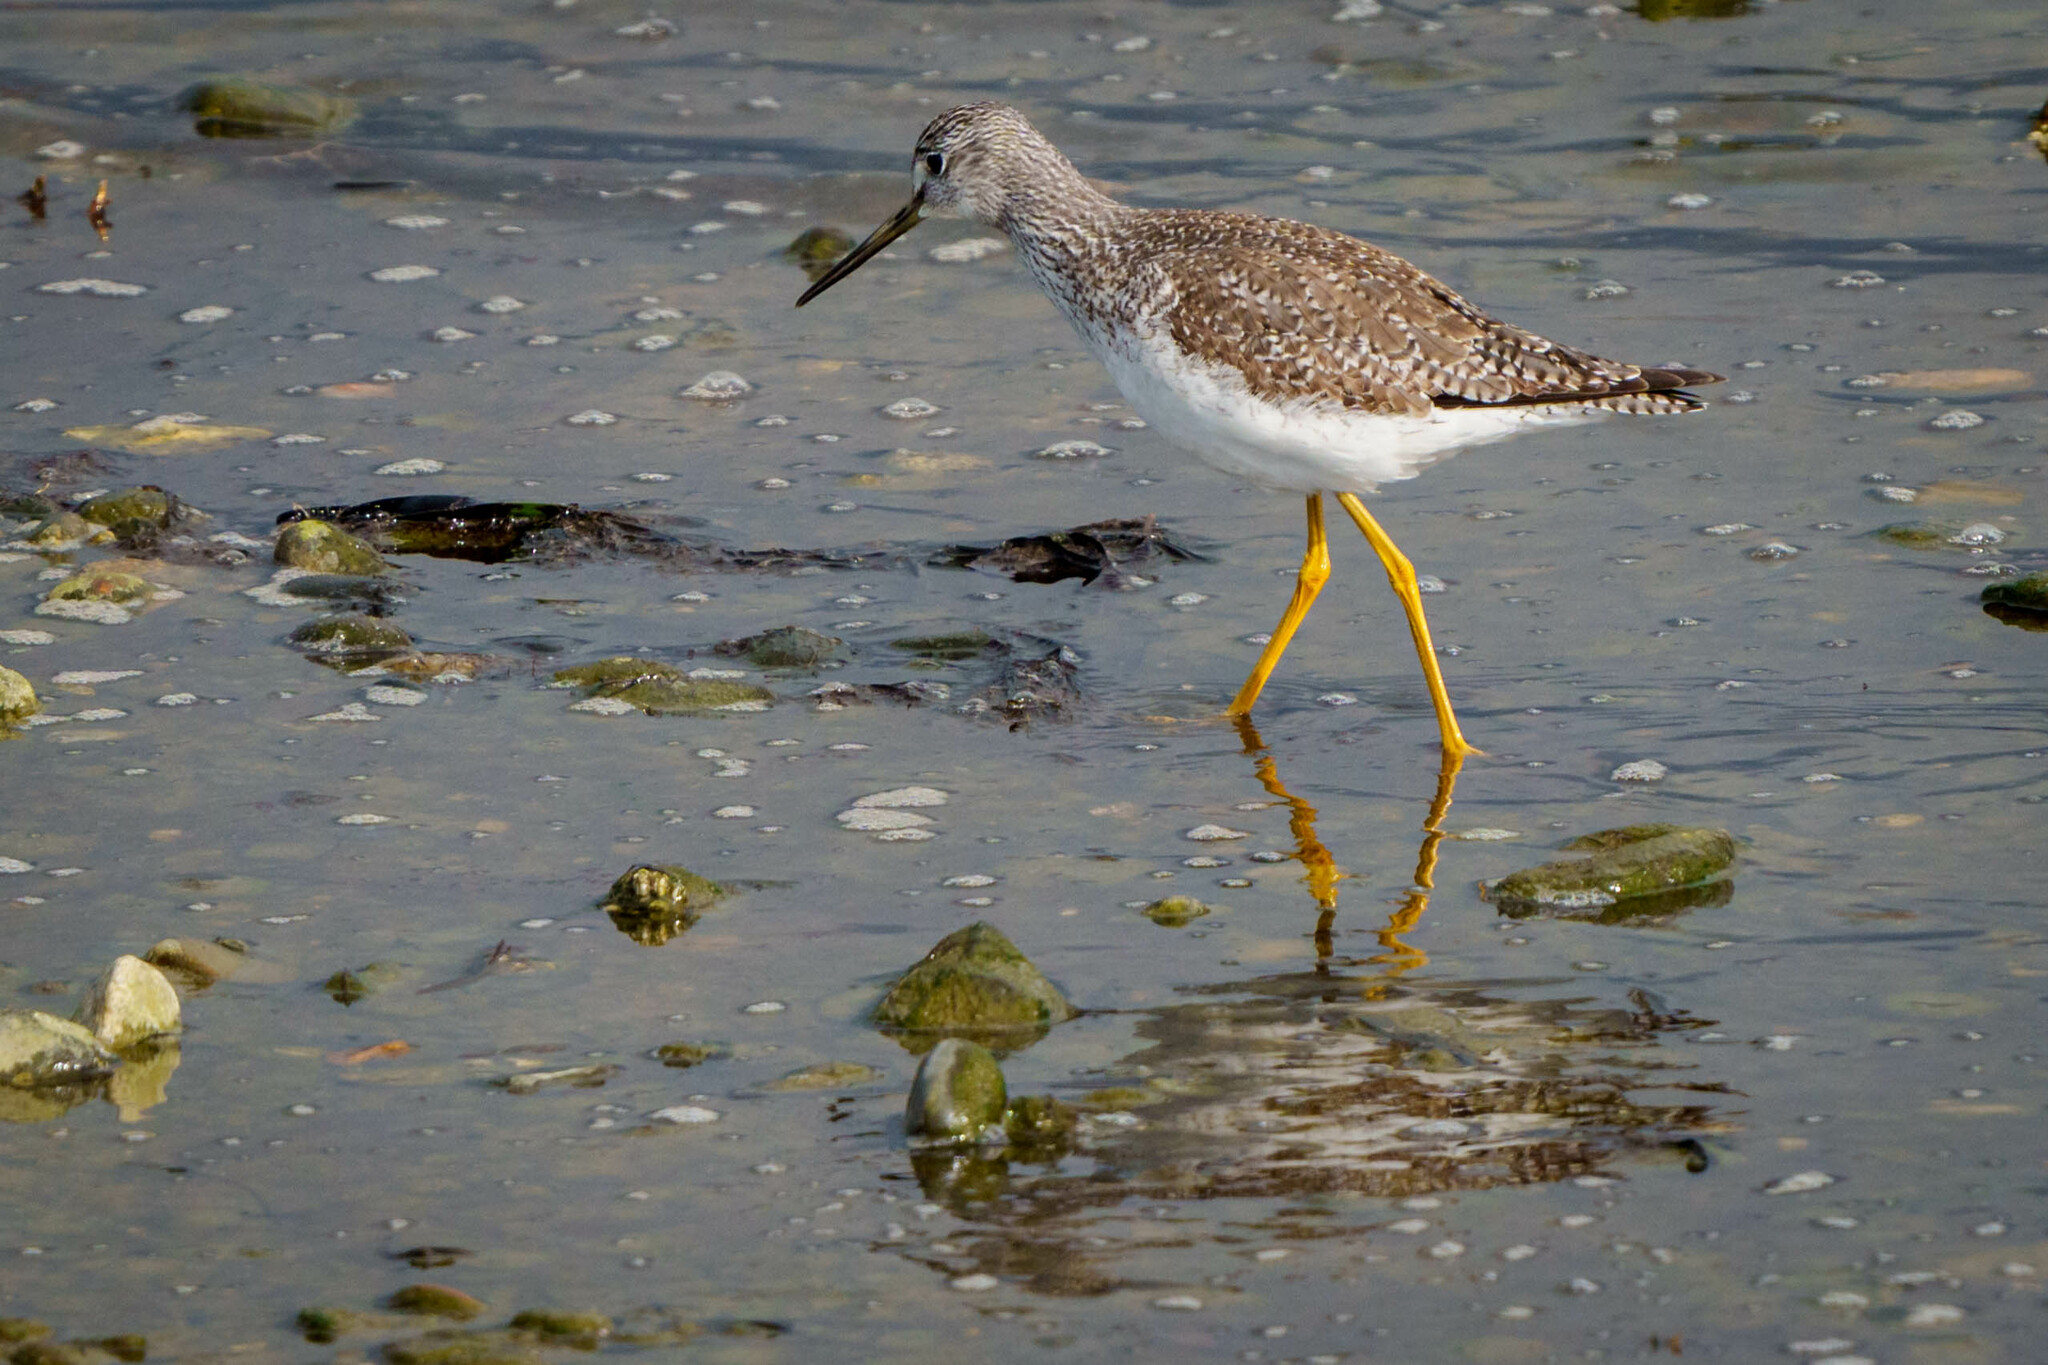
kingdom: Animalia
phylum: Chordata
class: Aves
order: Charadriiformes
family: Scolopacidae
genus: Tringa
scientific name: Tringa melanoleuca
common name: Greater yellowlegs
